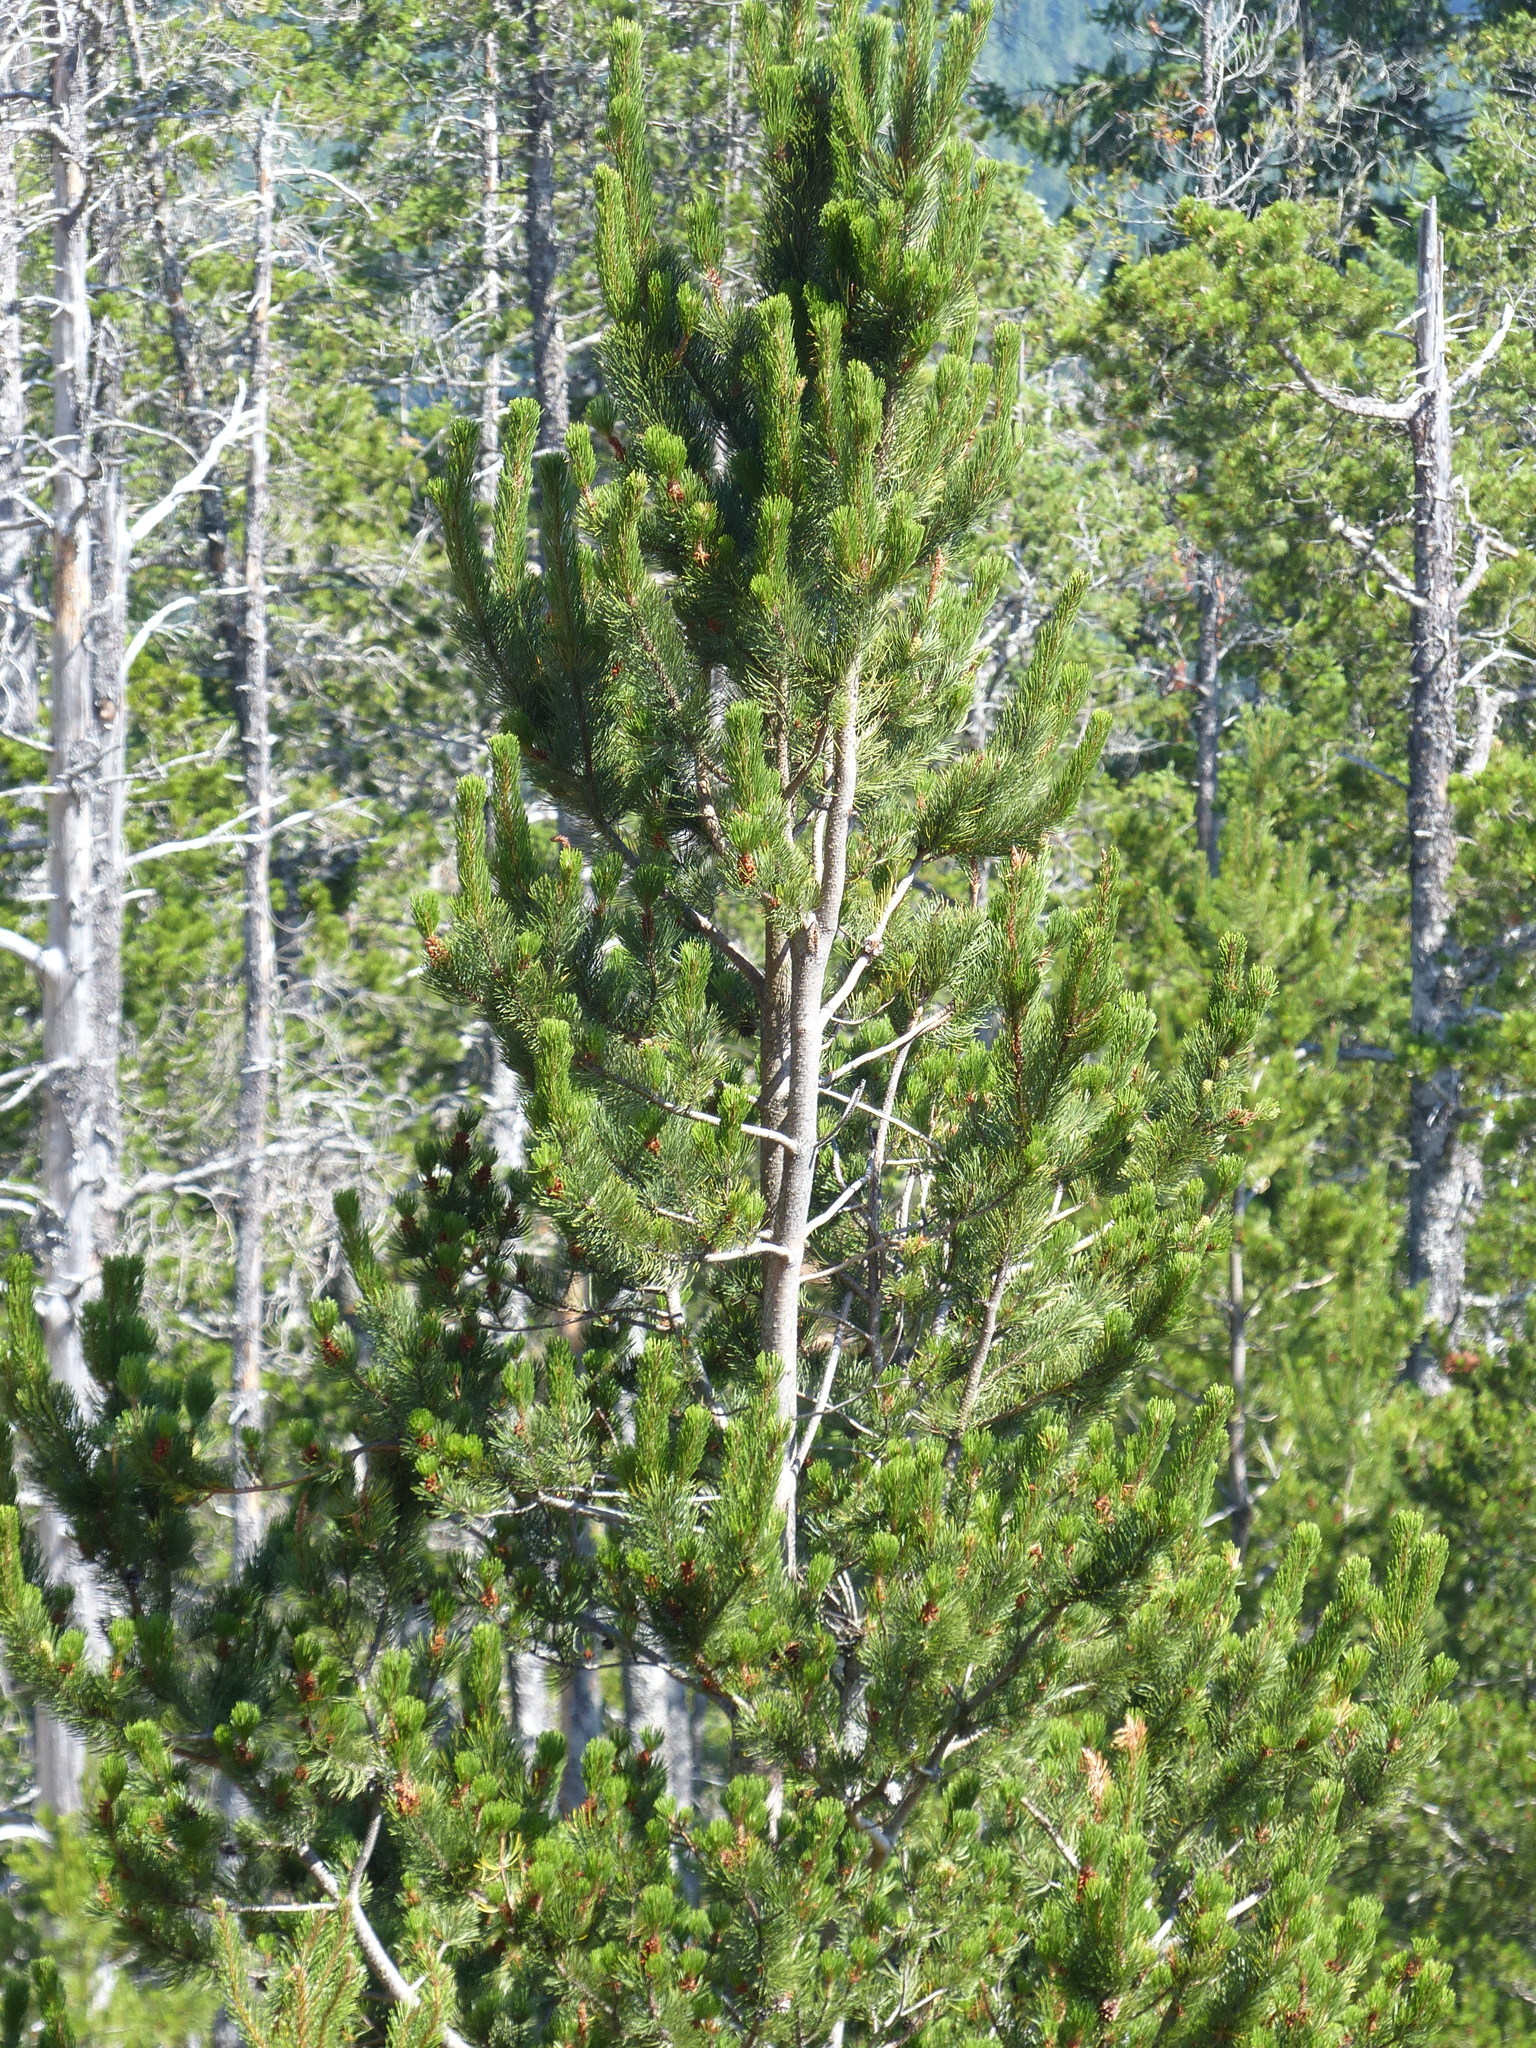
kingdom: Plantae
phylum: Tracheophyta
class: Pinopsida
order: Pinales
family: Pinaceae
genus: Pinus
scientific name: Pinus contorta
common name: Lodgepole pine
